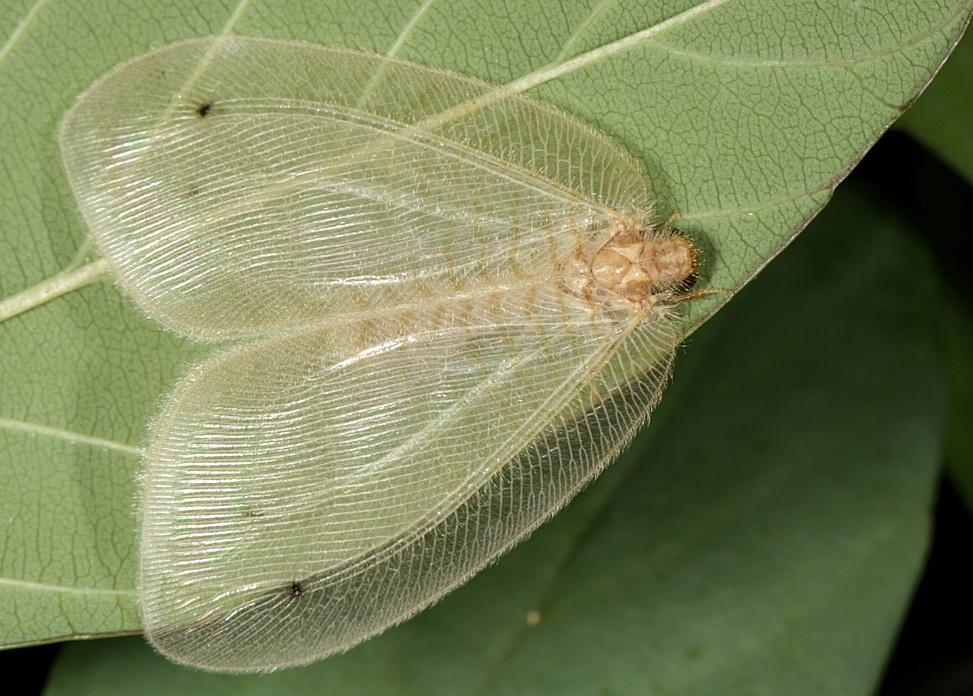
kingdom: Animalia
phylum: Arthropoda
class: Insecta
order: Neuroptera
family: Psychopsidae
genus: Zygophlebius
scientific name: Zygophlebius leoninus
